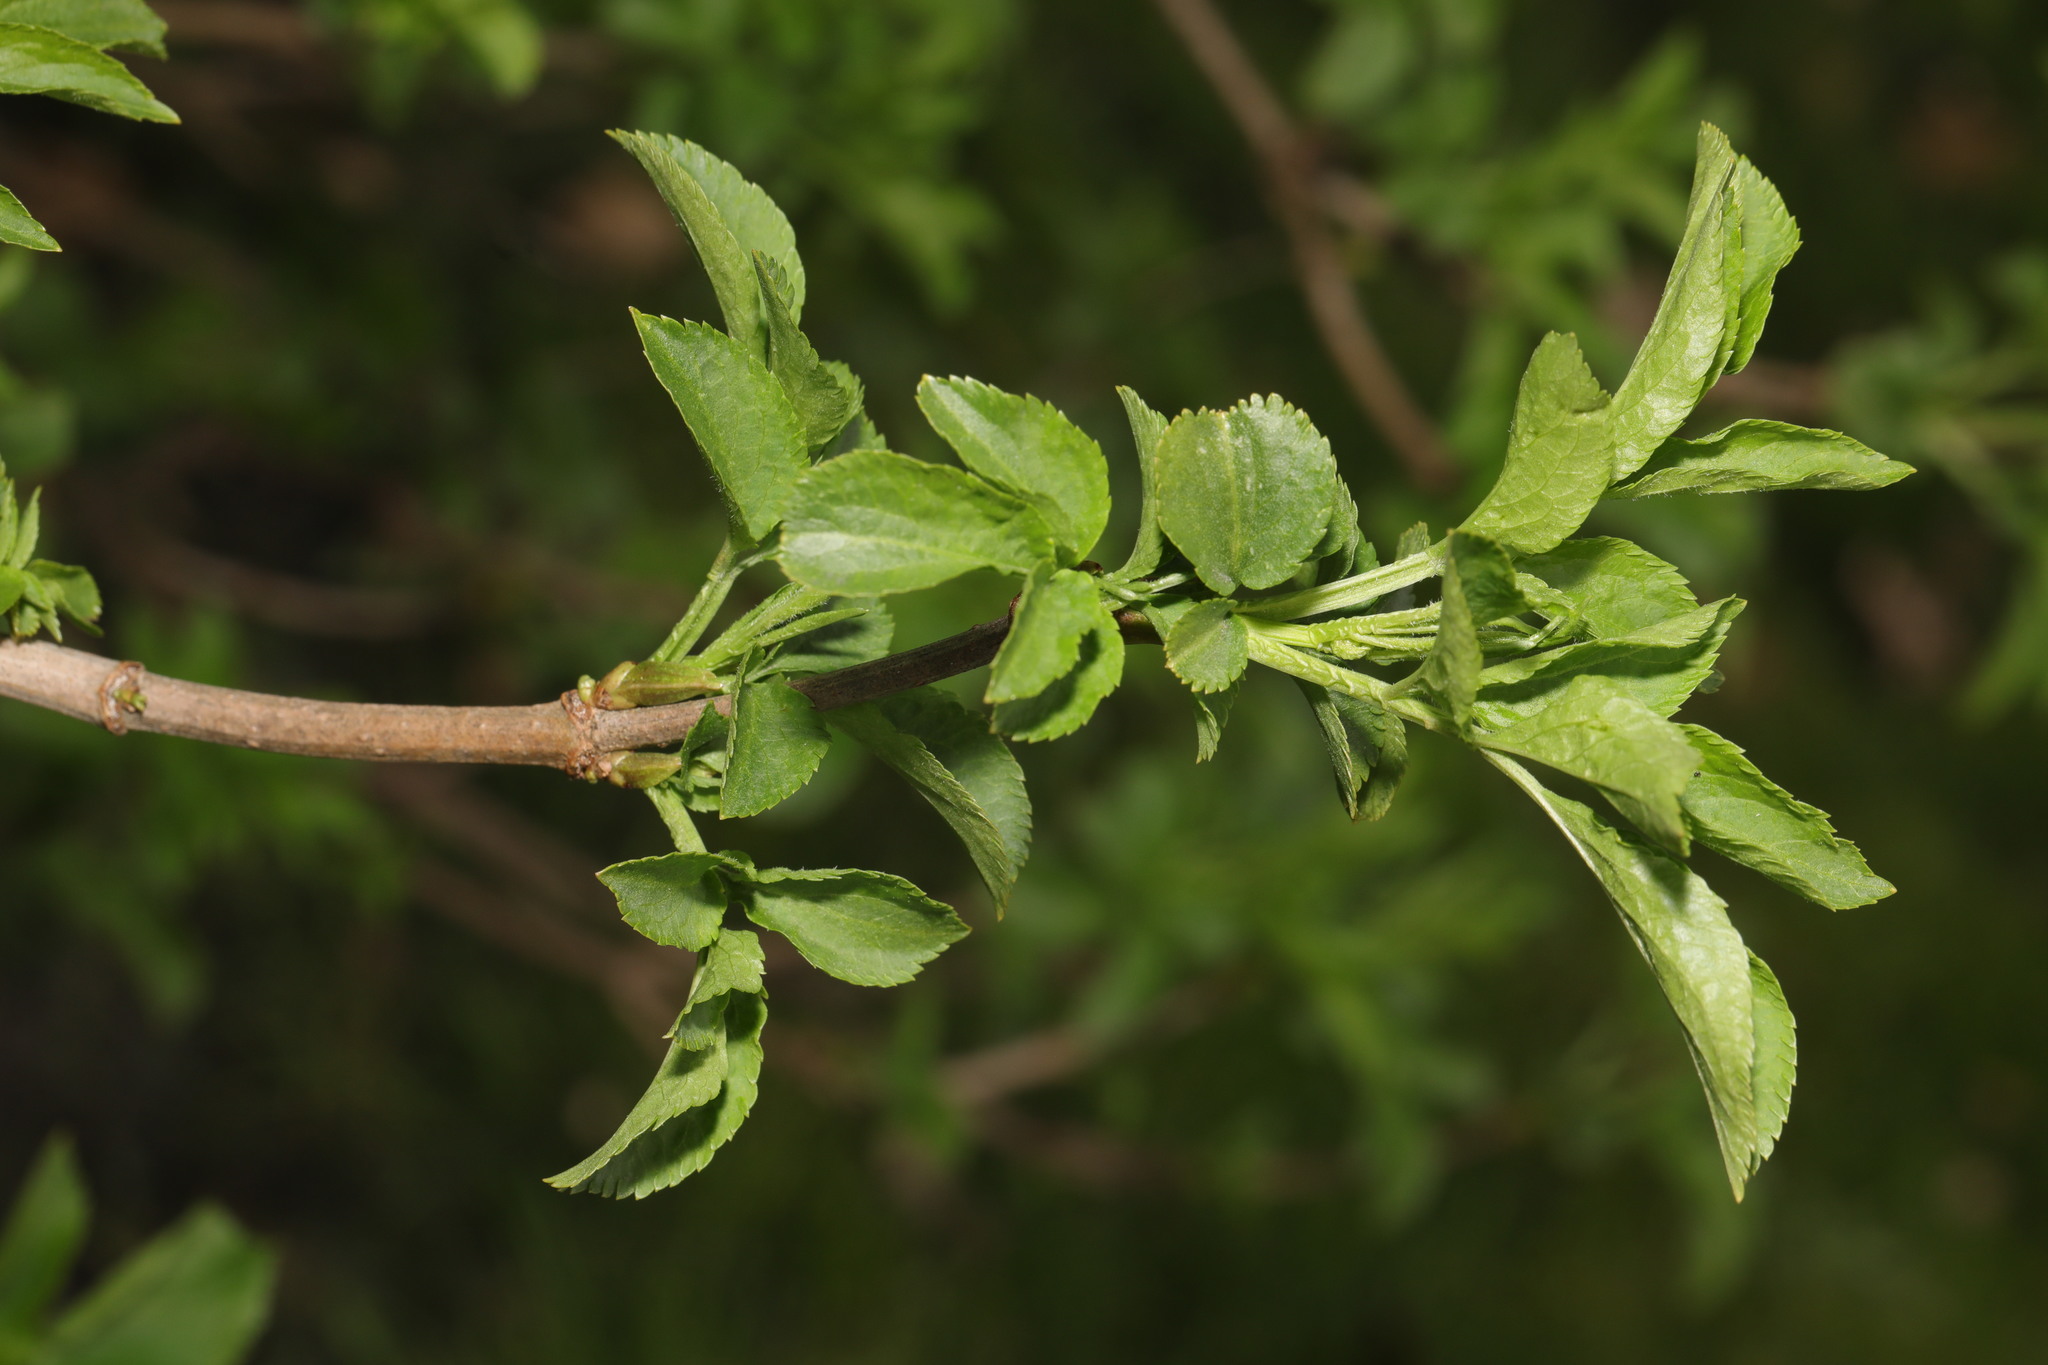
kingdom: Plantae
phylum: Tracheophyta
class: Magnoliopsida
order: Dipsacales
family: Viburnaceae
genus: Sambucus
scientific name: Sambucus nigra
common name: Elder
